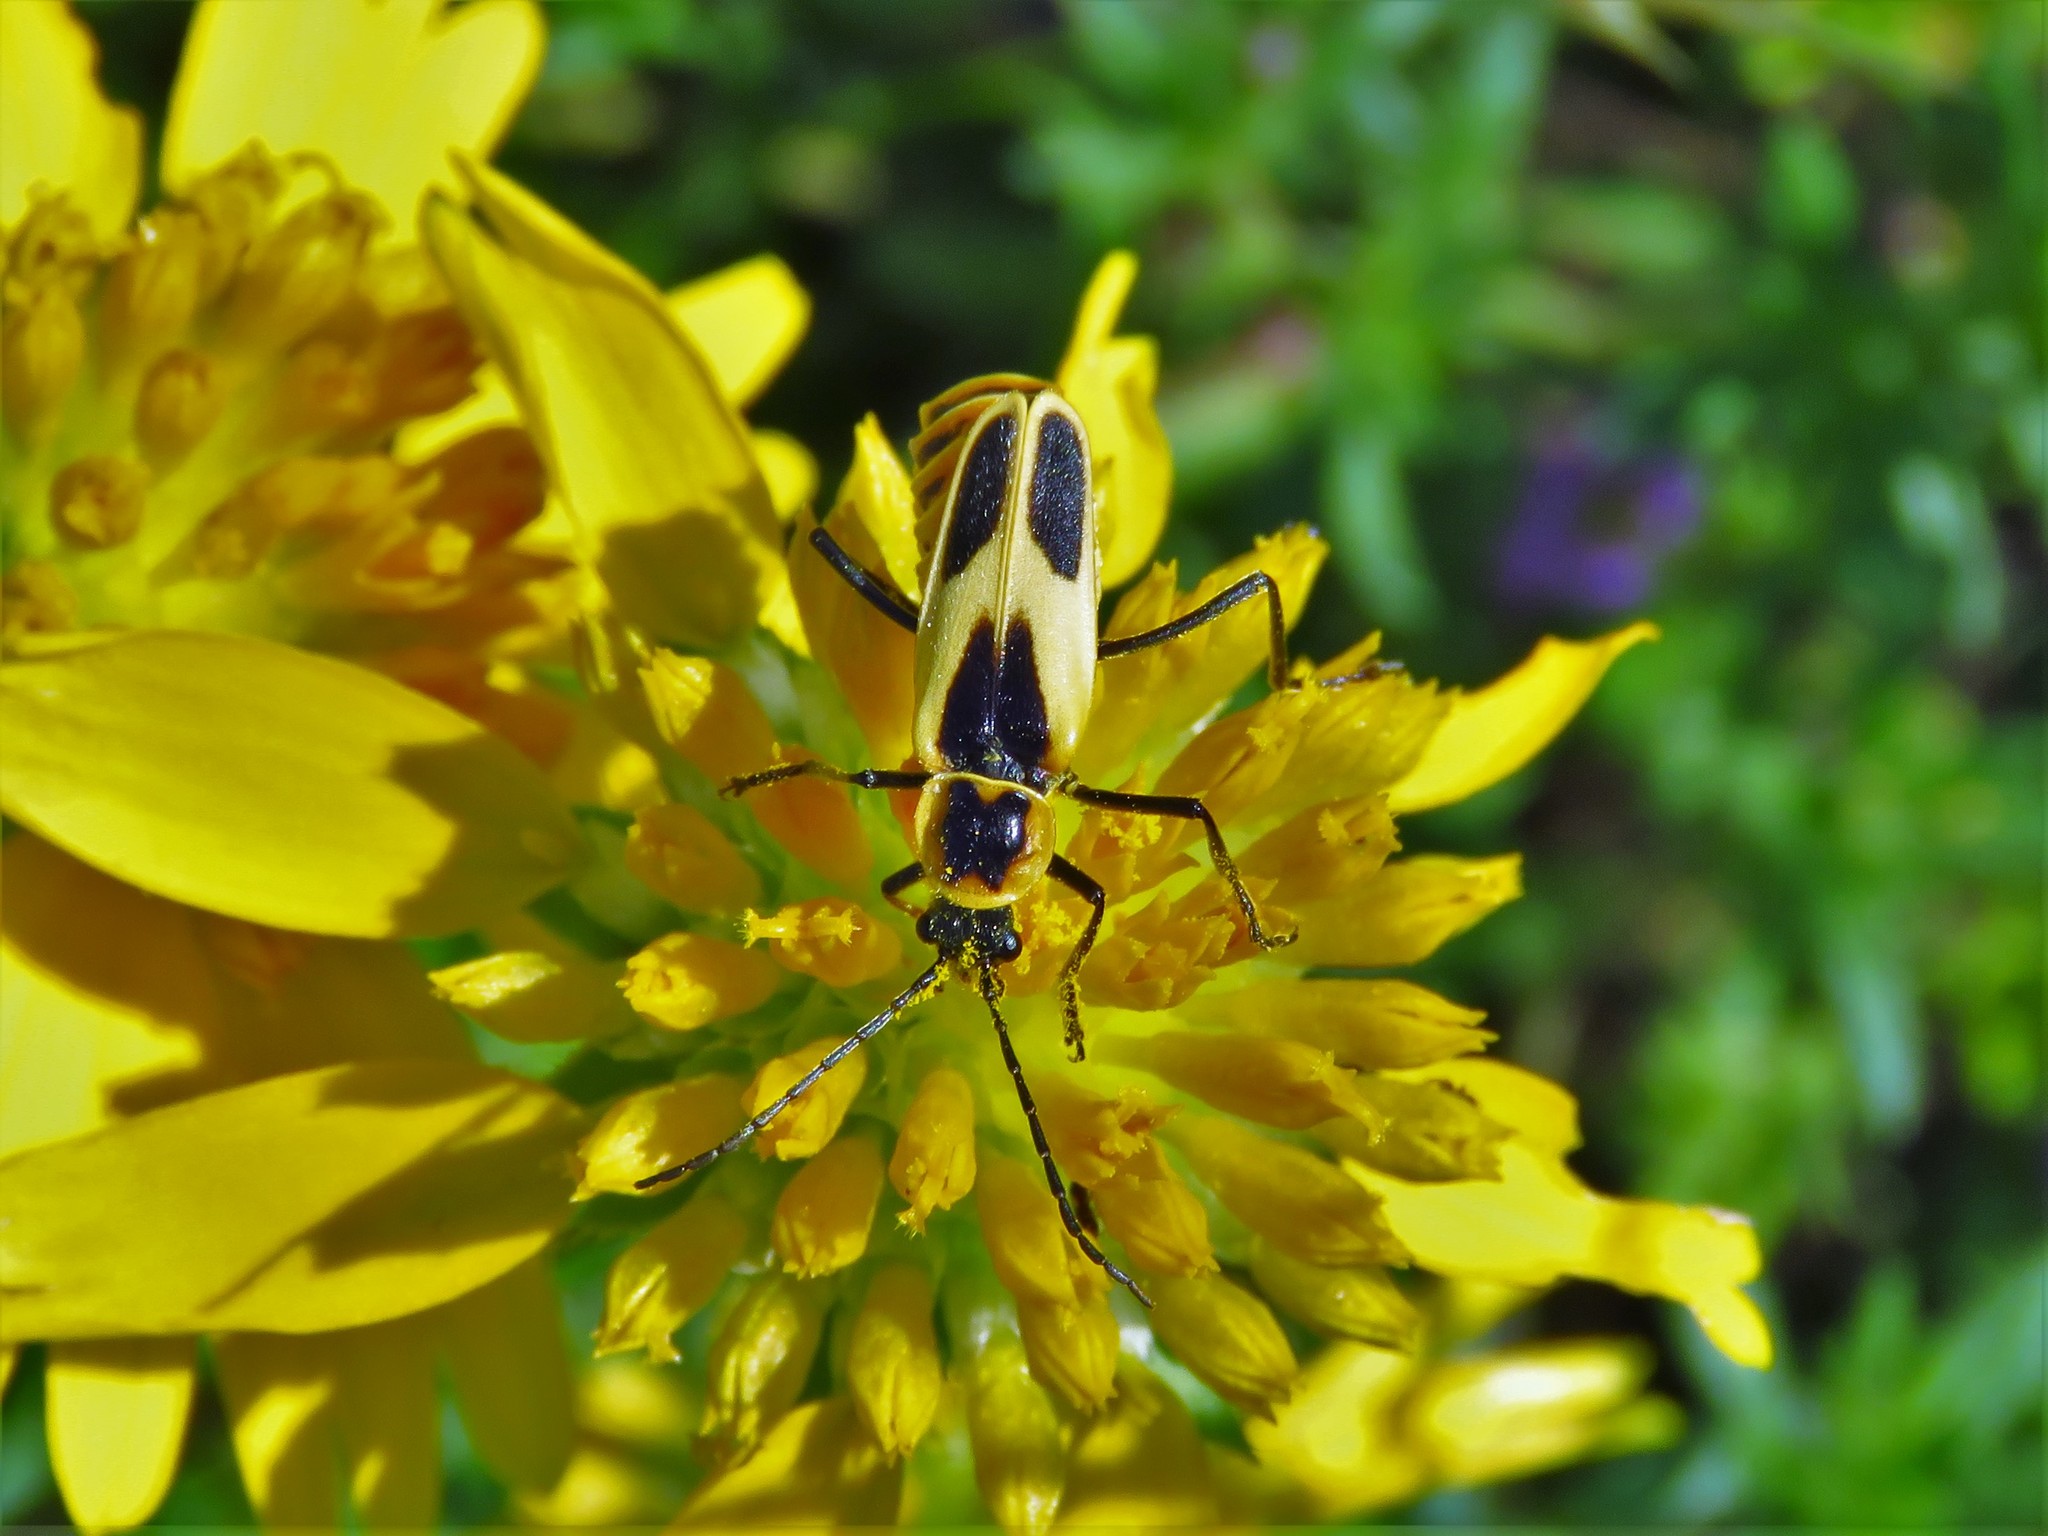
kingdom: Animalia
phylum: Arthropoda
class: Insecta
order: Coleoptera
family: Cantharidae
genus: Chauliognathus
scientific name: Chauliognathus scutellaris
